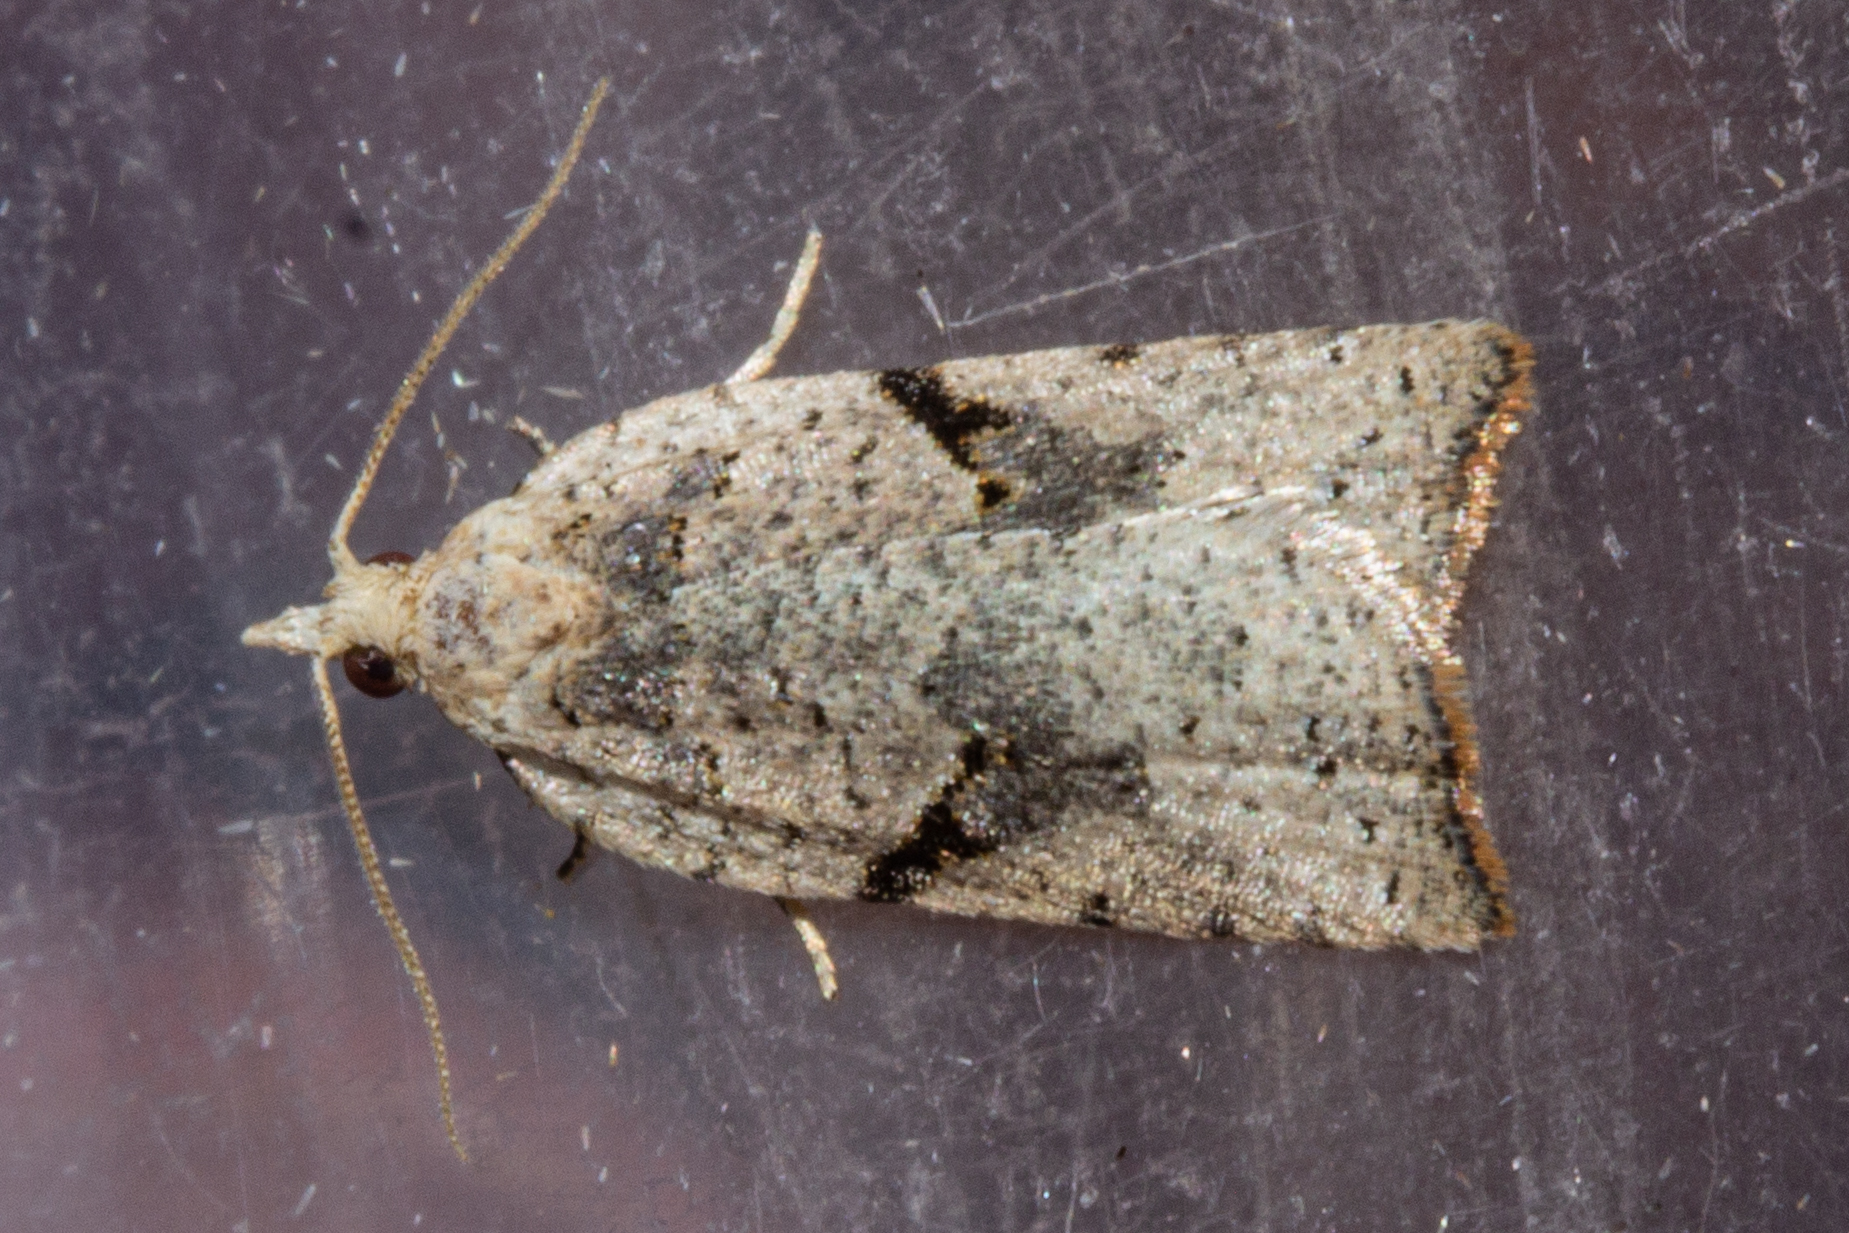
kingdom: Animalia
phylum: Arthropoda
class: Insecta
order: Lepidoptera
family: Tortricidae
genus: Leucotenes
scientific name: Leucotenes coprosmae
